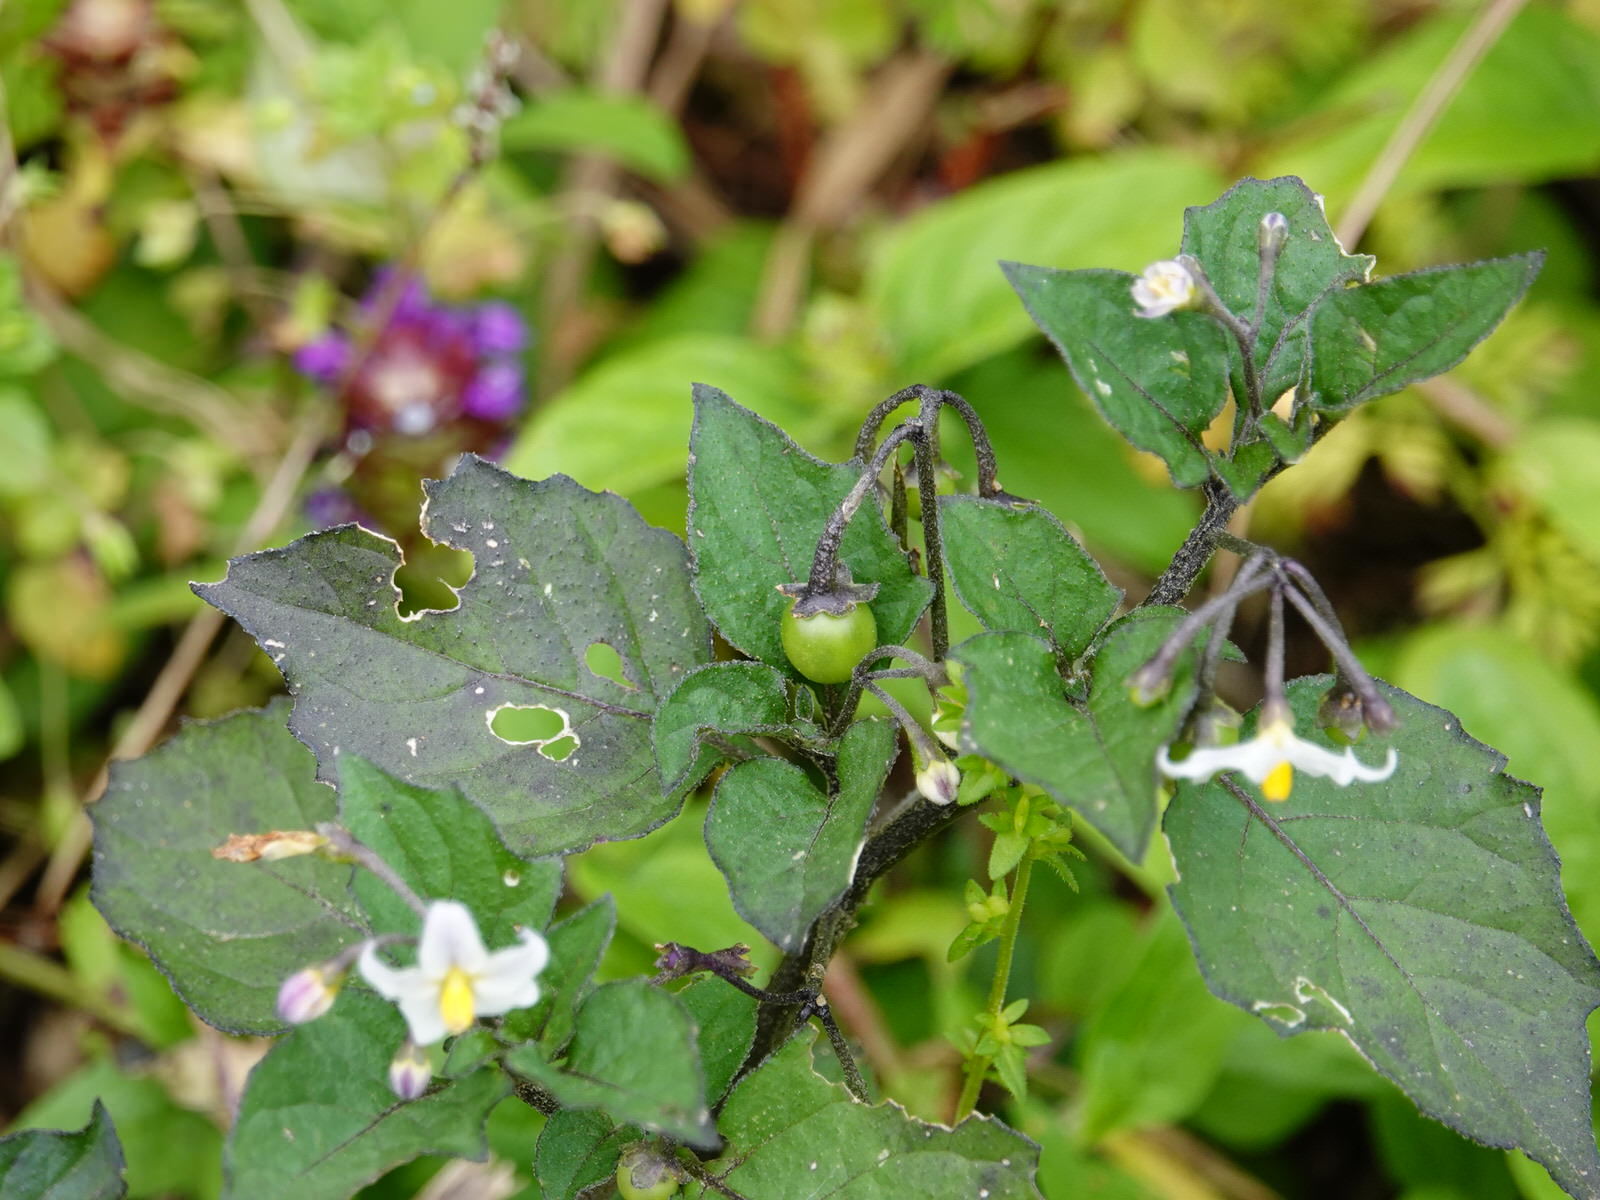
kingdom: Plantae
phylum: Tracheophyta
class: Magnoliopsida
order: Solanales
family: Solanaceae
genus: Solanum
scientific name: Solanum nigrum
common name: Black nightshade
